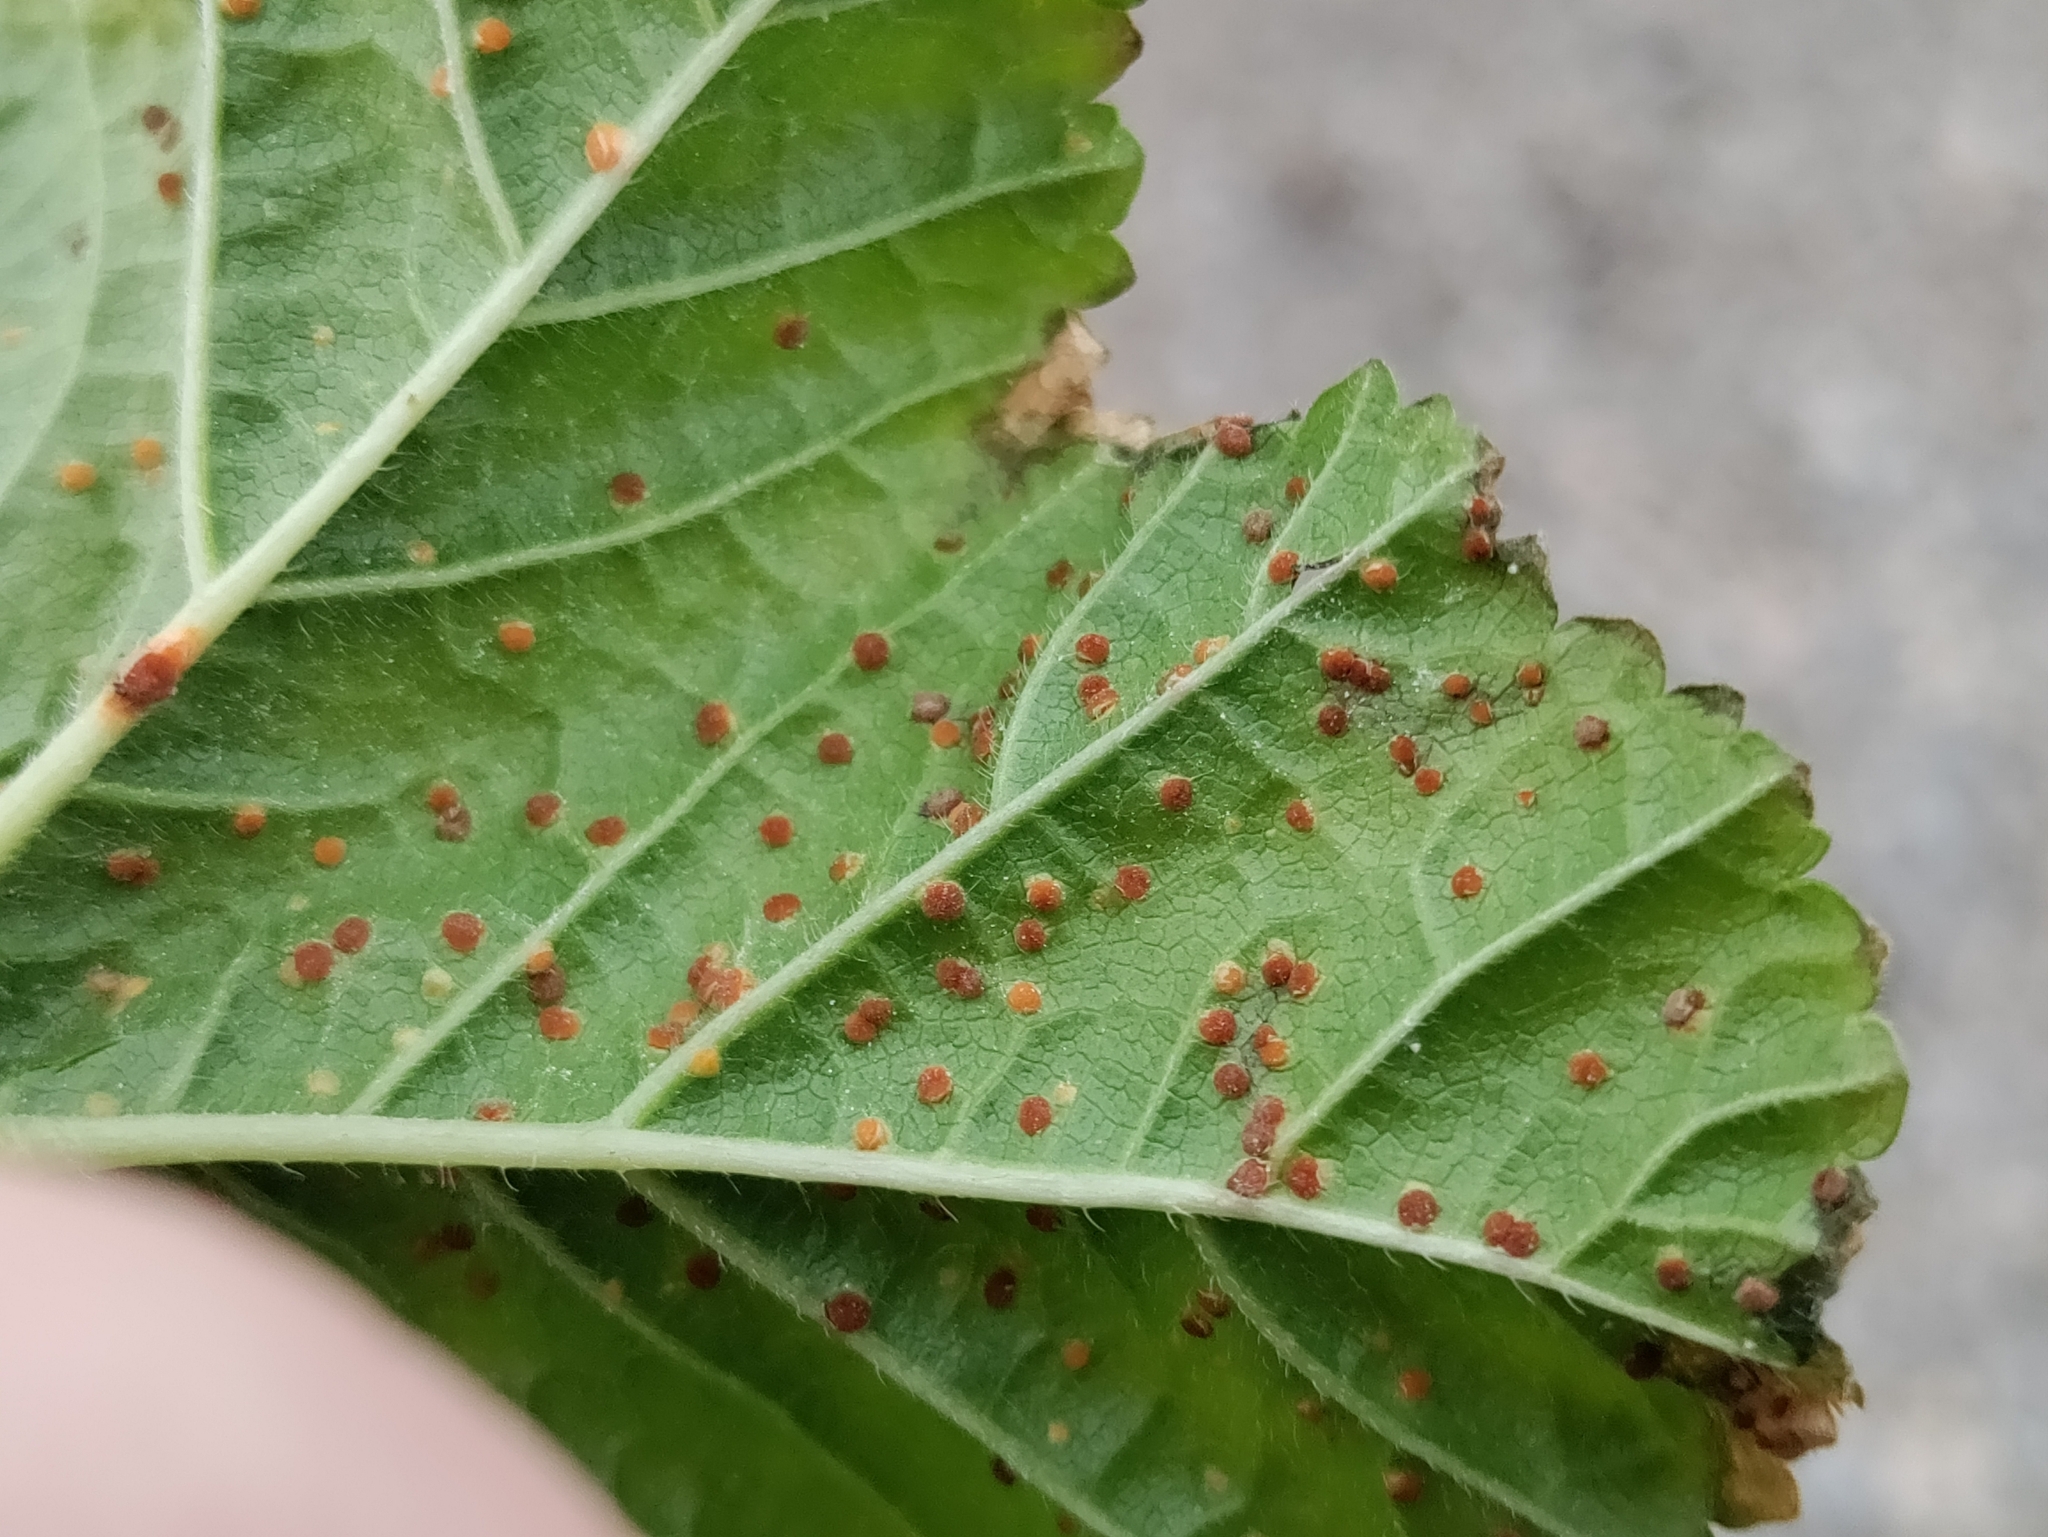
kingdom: Fungi
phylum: Basidiomycota
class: Pucciniomycetes
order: Pucciniales
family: Pucciniaceae
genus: Puccinia
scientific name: Puccinia malvacearum
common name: Hollyhock rust
